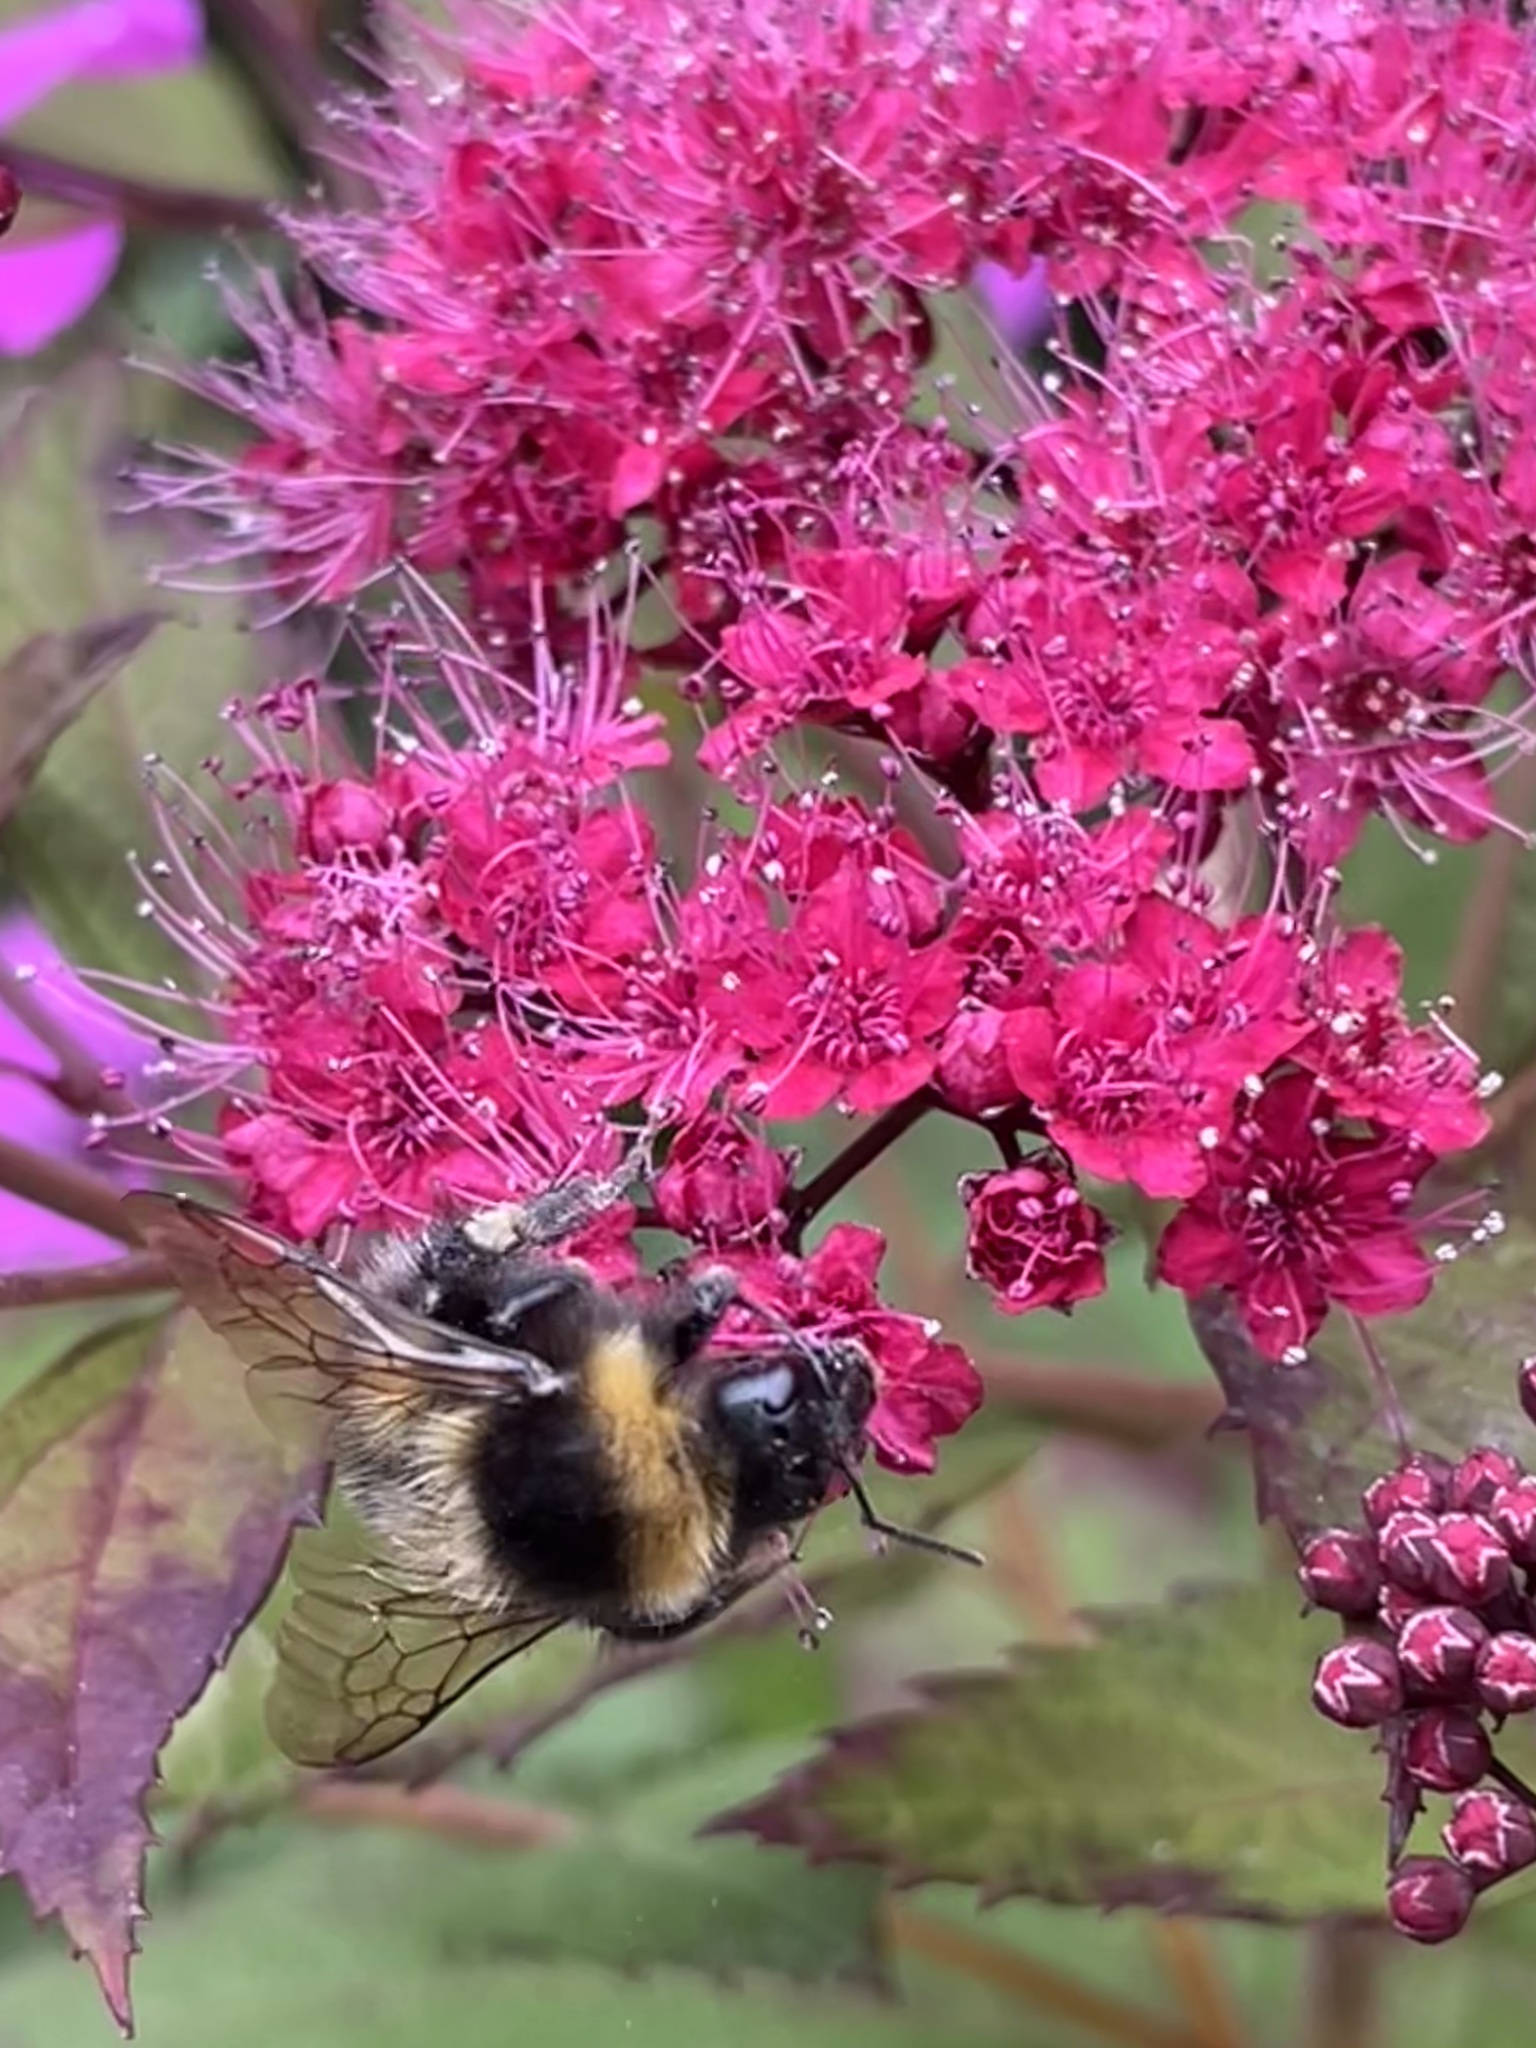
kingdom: Animalia
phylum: Arthropoda
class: Insecta
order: Hymenoptera
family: Apidae
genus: Bombus
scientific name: Bombus hortorum
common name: Garden bumblebee
